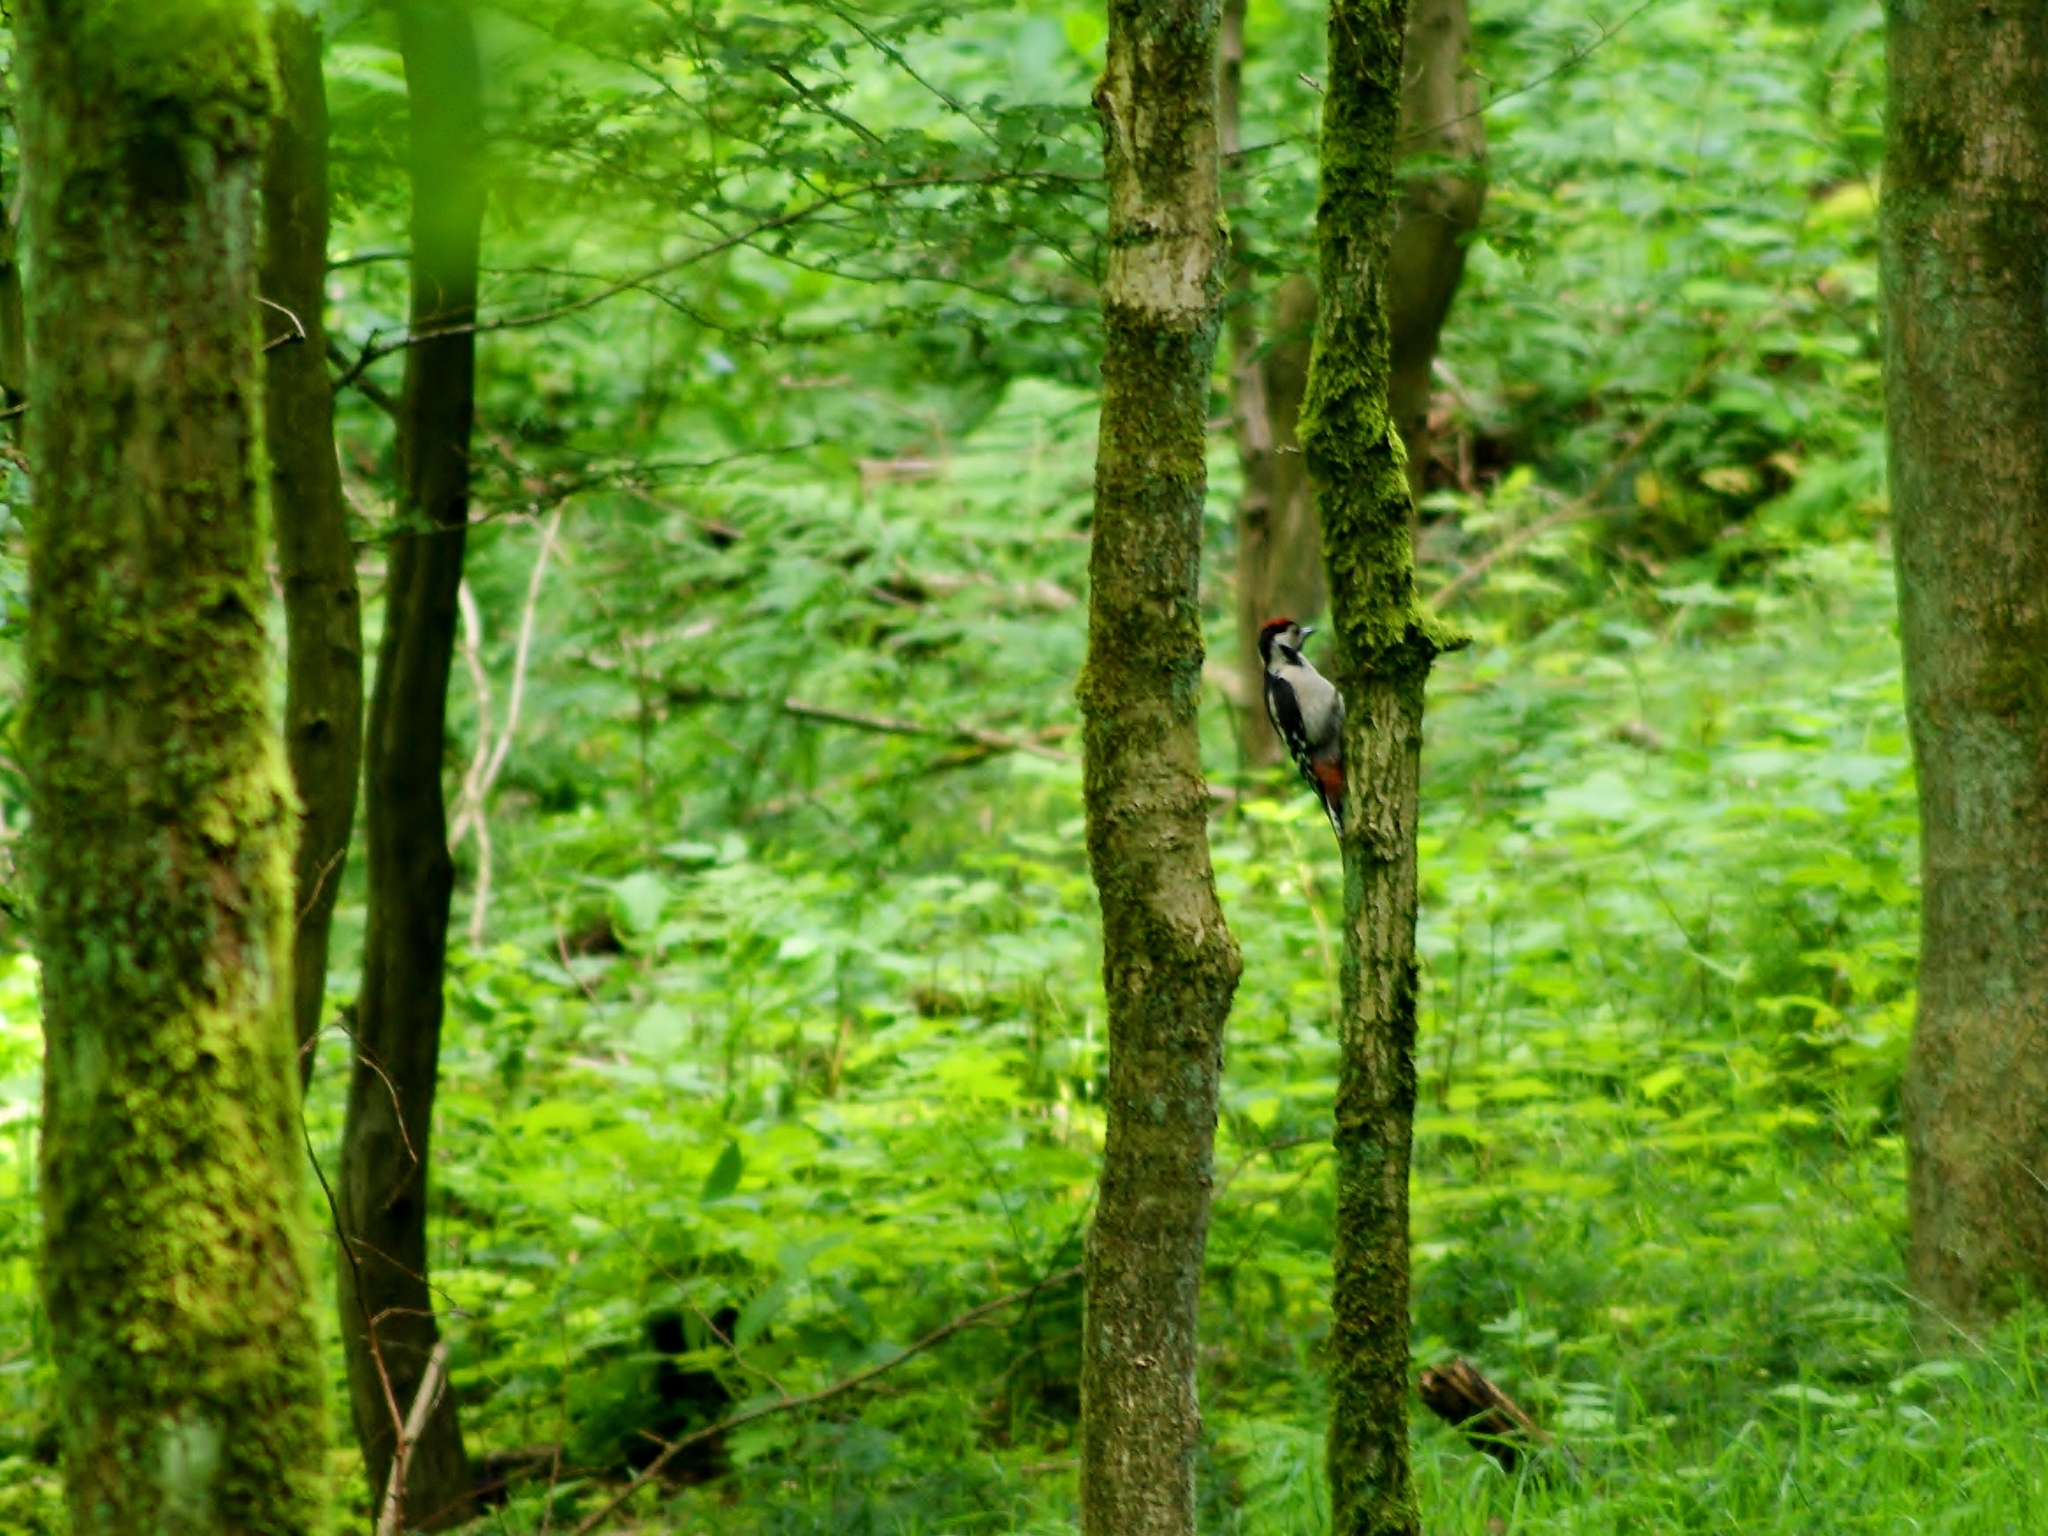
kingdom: Animalia
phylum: Chordata
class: Aves
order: Piciformes
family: Picidae
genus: Dendrocopos
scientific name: Dendrocopos major
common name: Great spotted woodpecker
